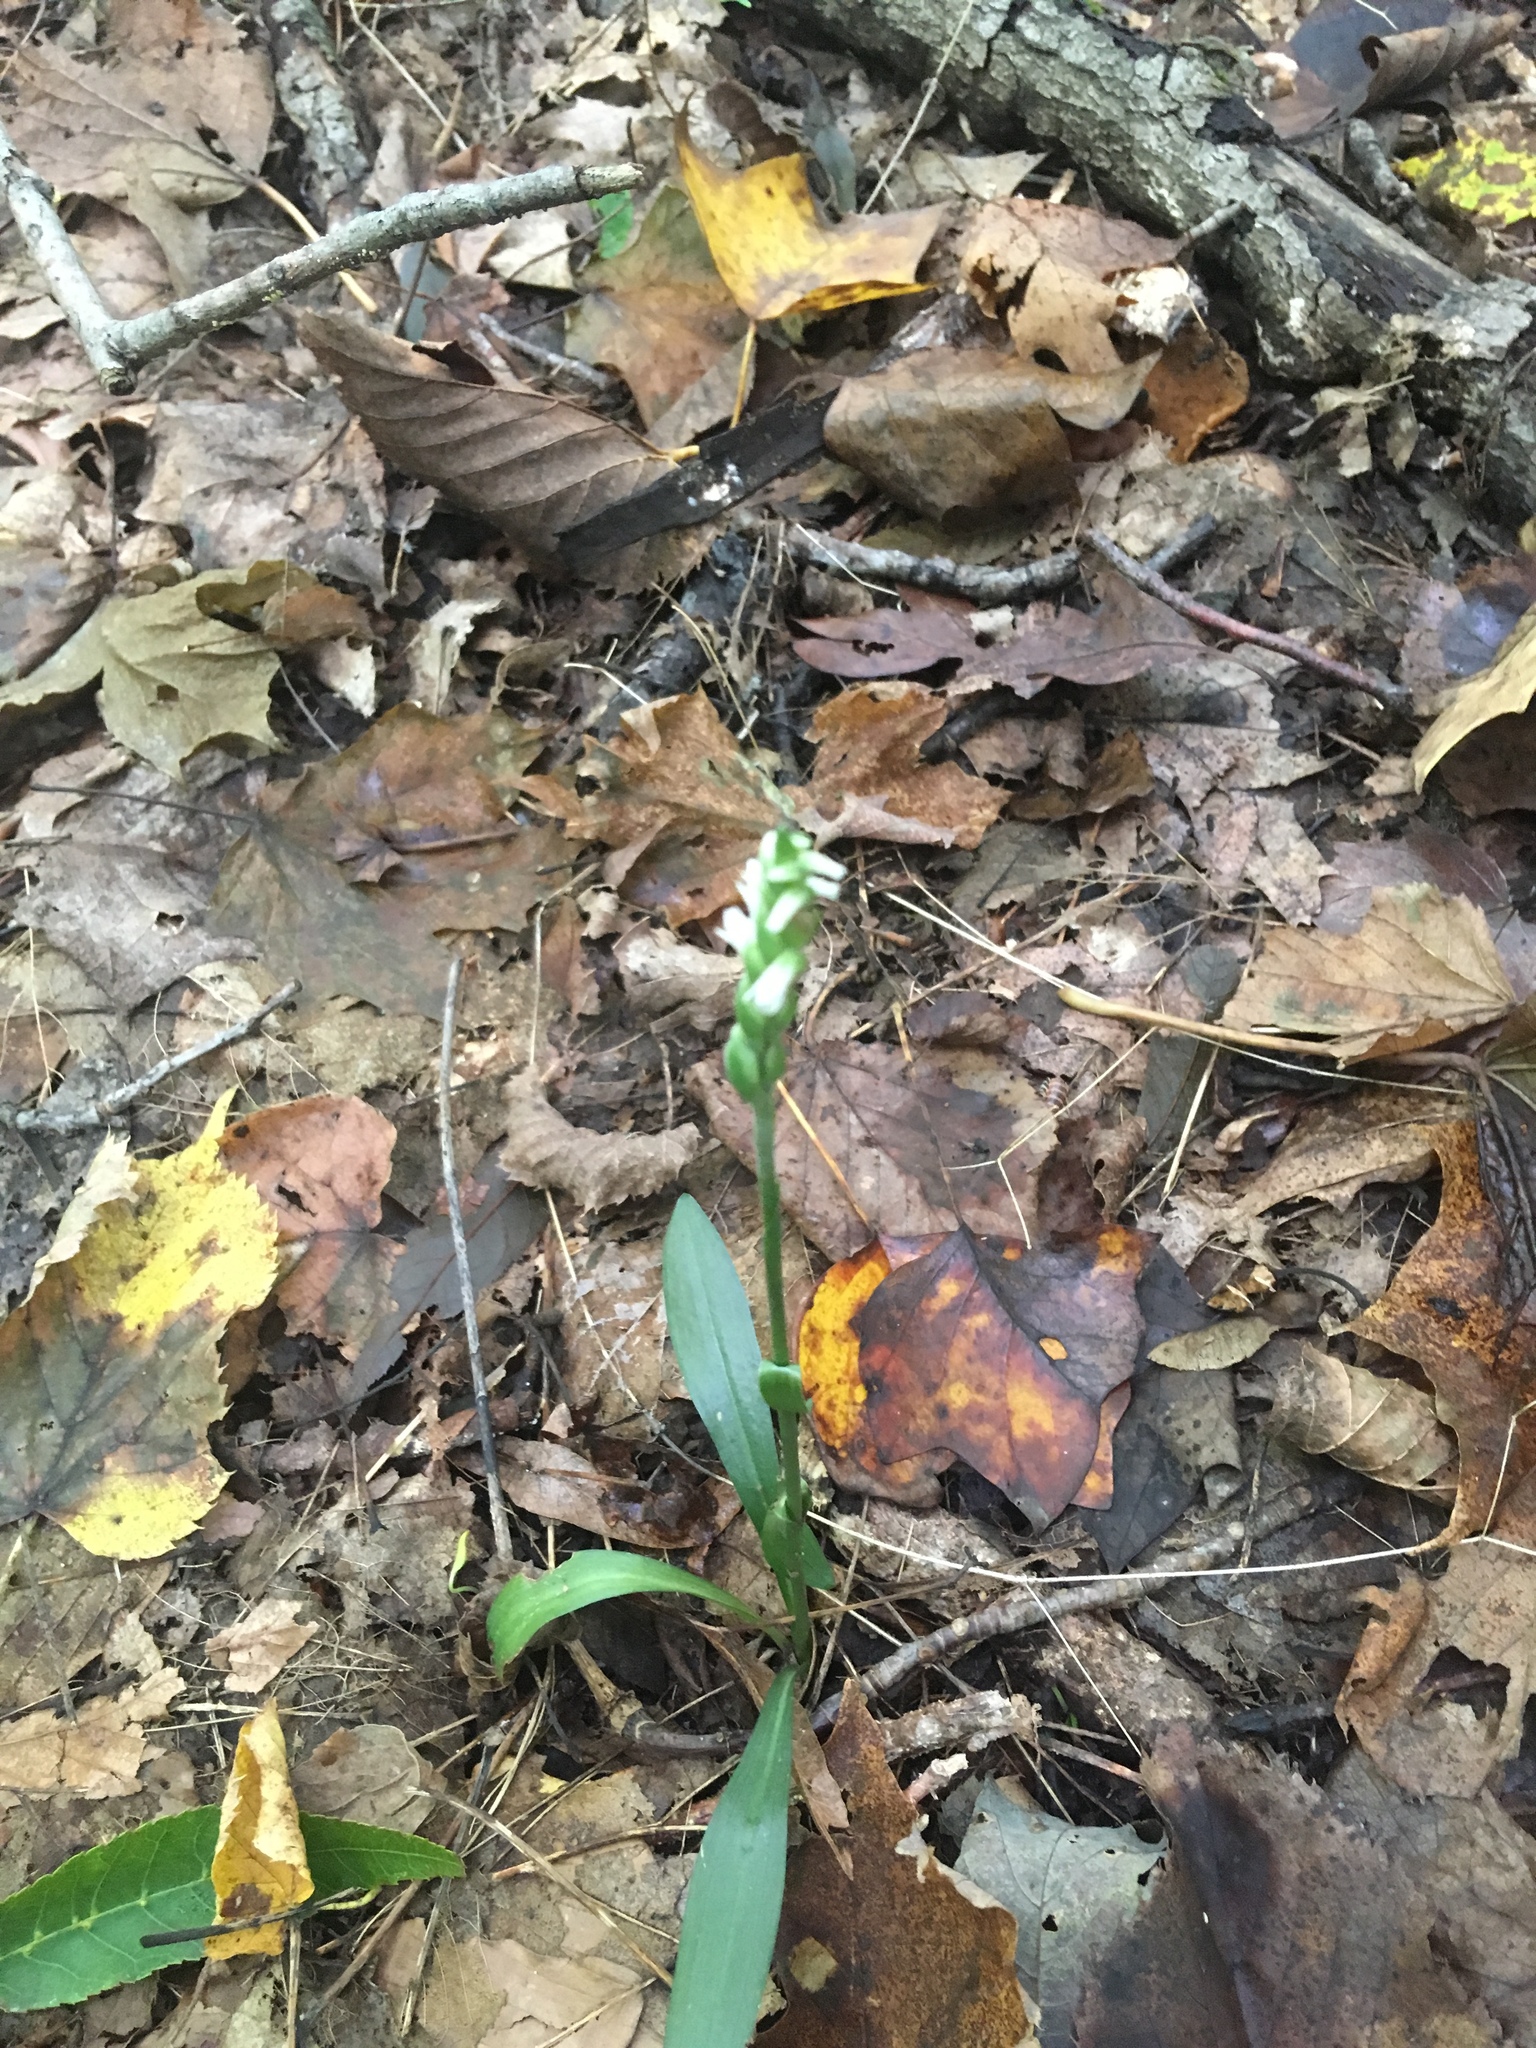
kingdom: Plantae
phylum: Tracheophyta
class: Liliopsida
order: Asparagales
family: Orchidaceae
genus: Spiranthes
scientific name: Spiranthes ovalis
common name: October ladies'-tresses
